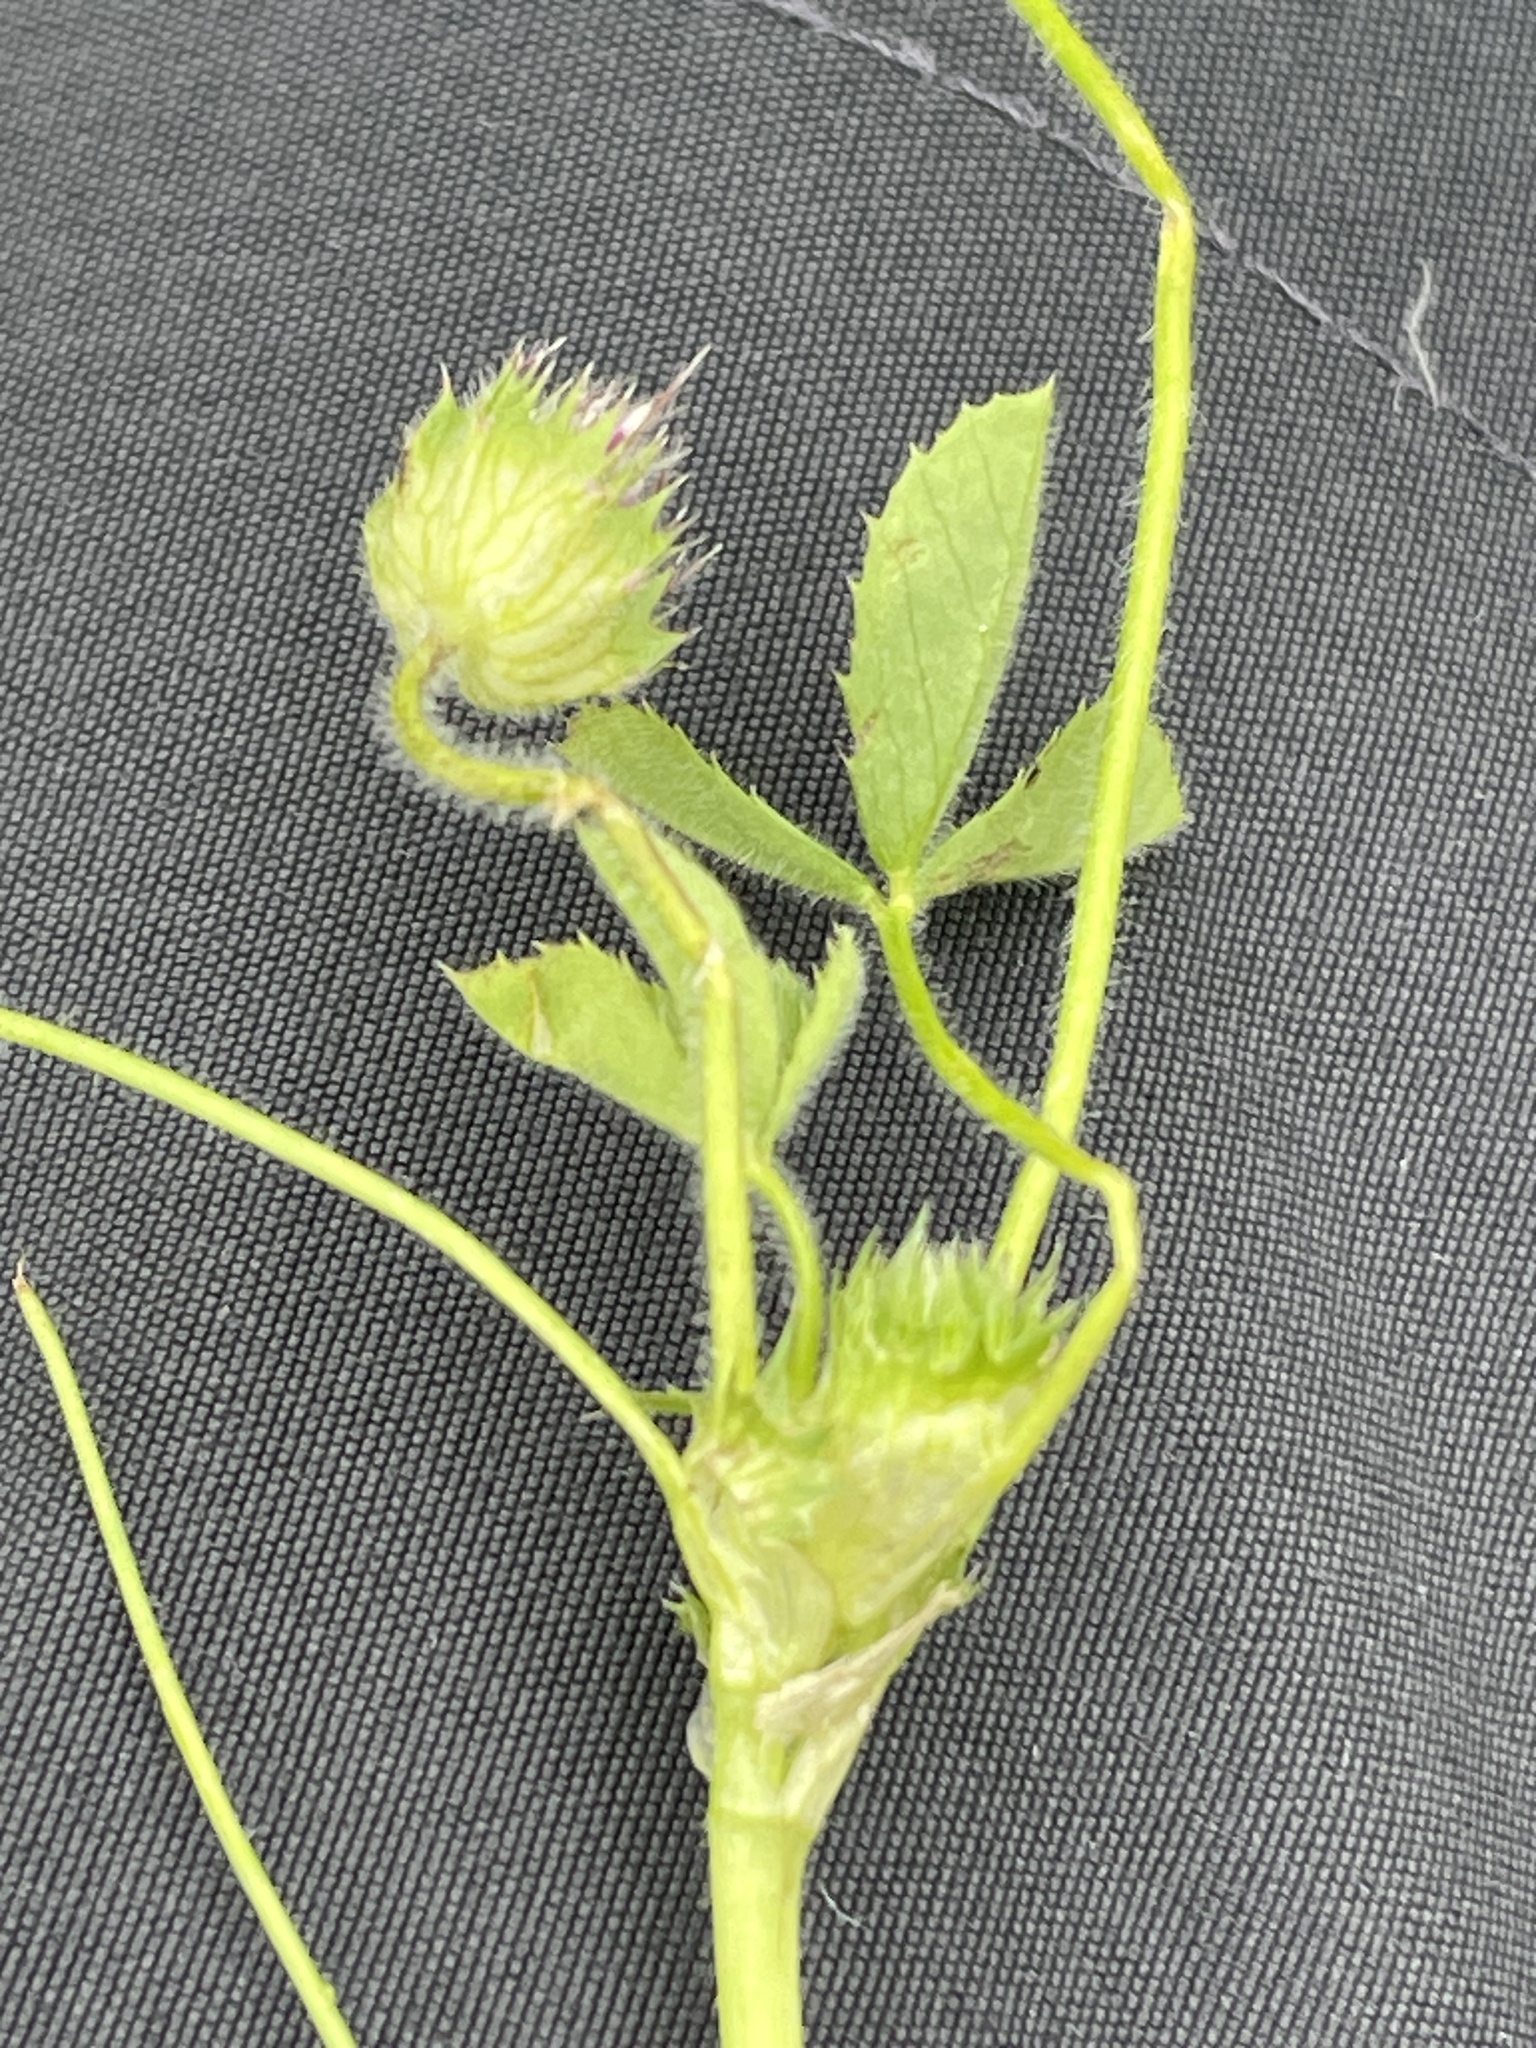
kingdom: Plantae
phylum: Tracheophyta
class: Magnoliopsida
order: Fabales
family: Fabaceae
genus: Trifolium
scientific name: Trifolium barbigerum
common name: Bearded clover
